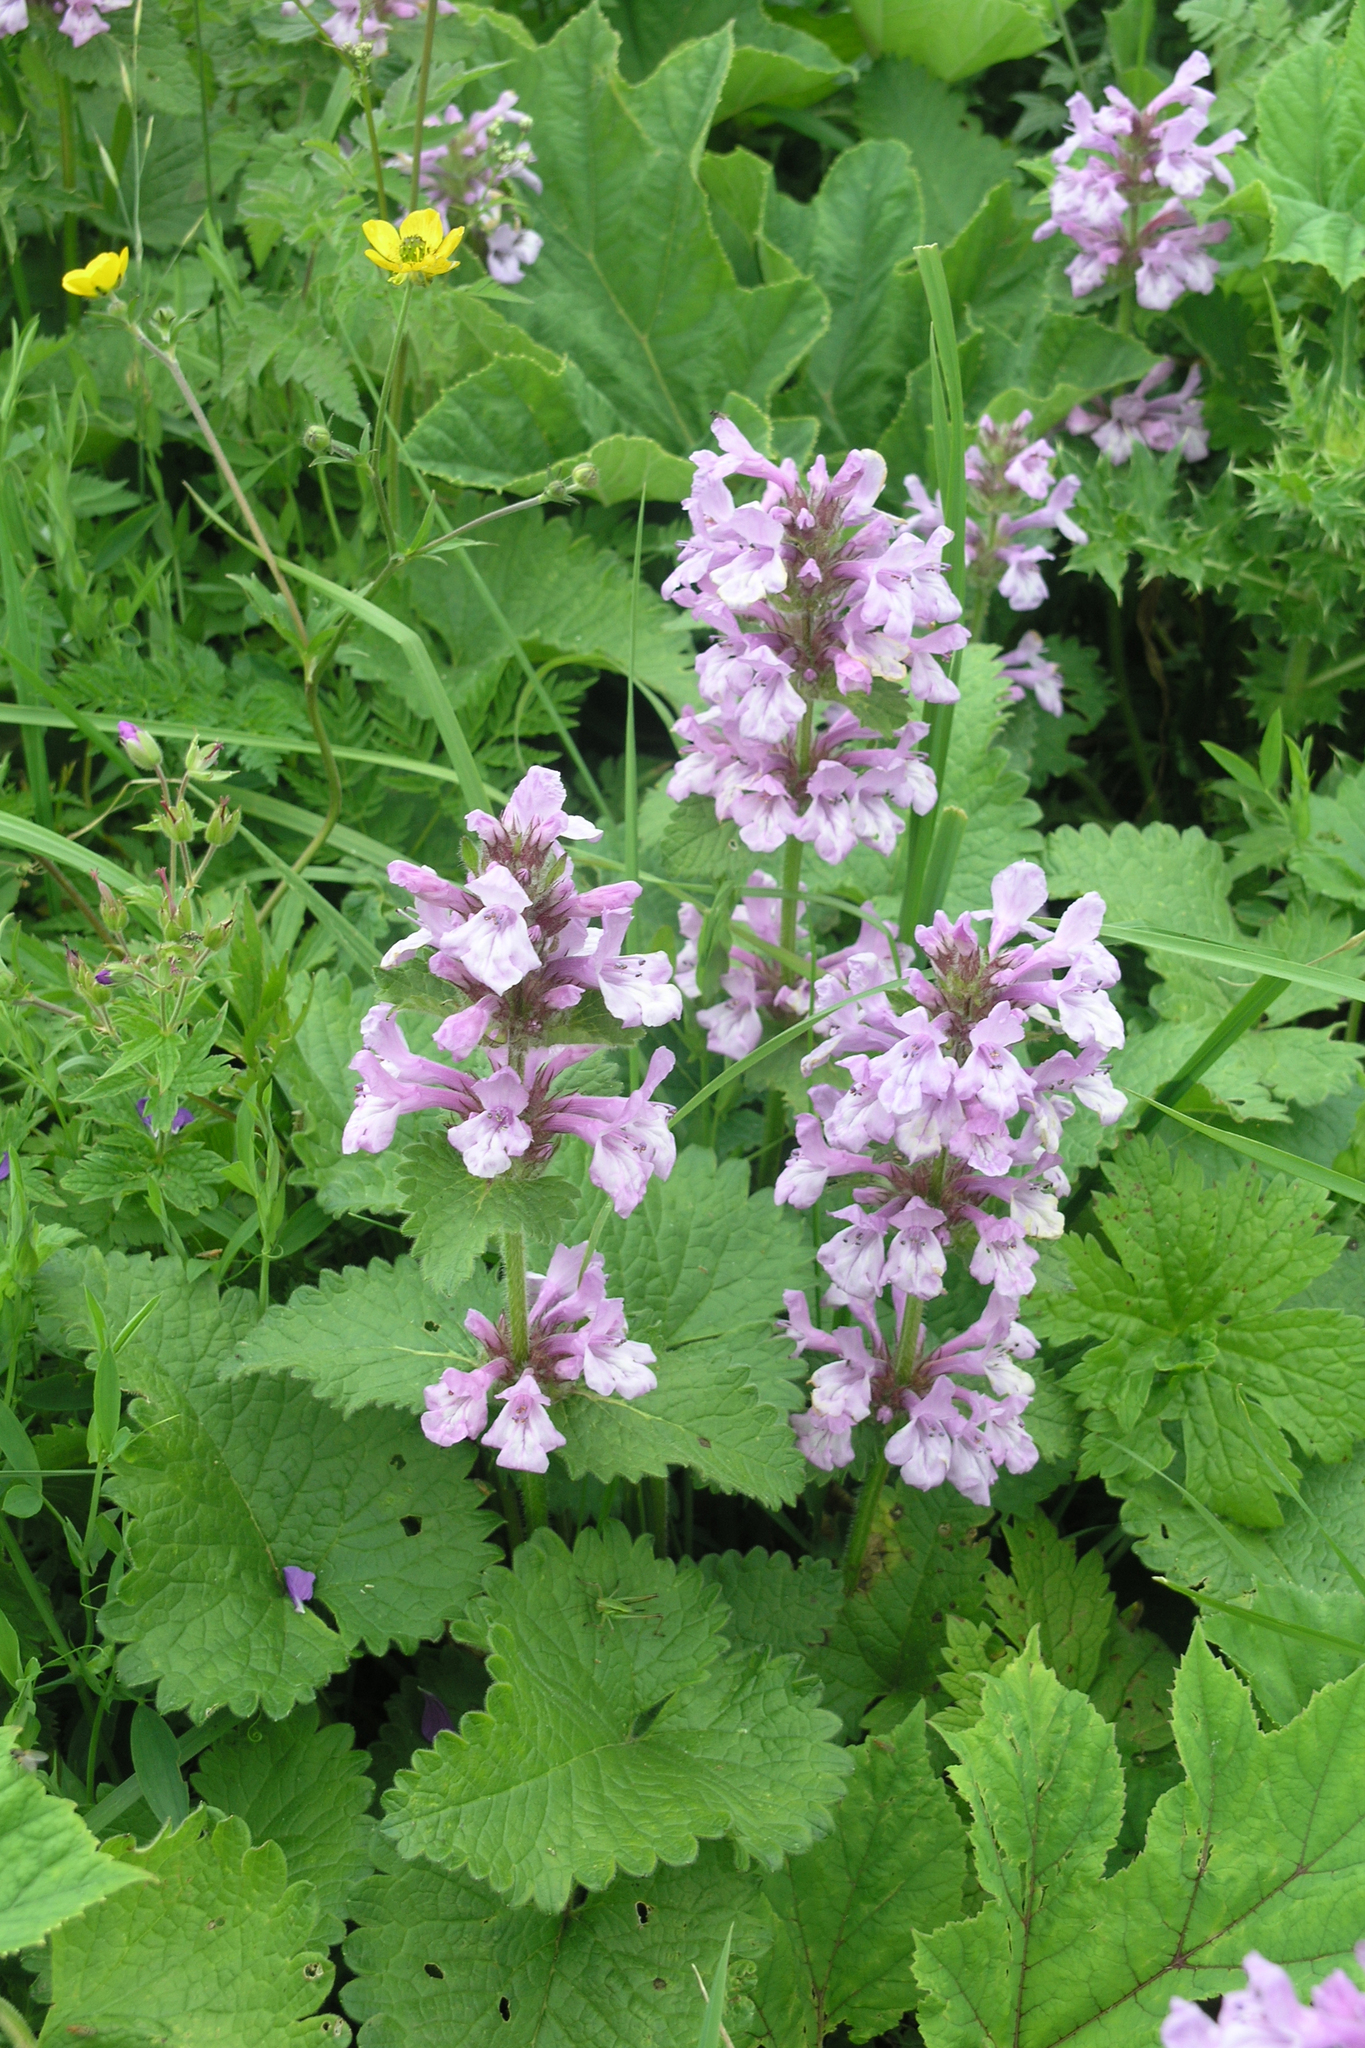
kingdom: Plantae
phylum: Tracheophyta
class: Magnoliopsida
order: Lamiales
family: Lamiaceae
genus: Betonica
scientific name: Betonica macrantha
